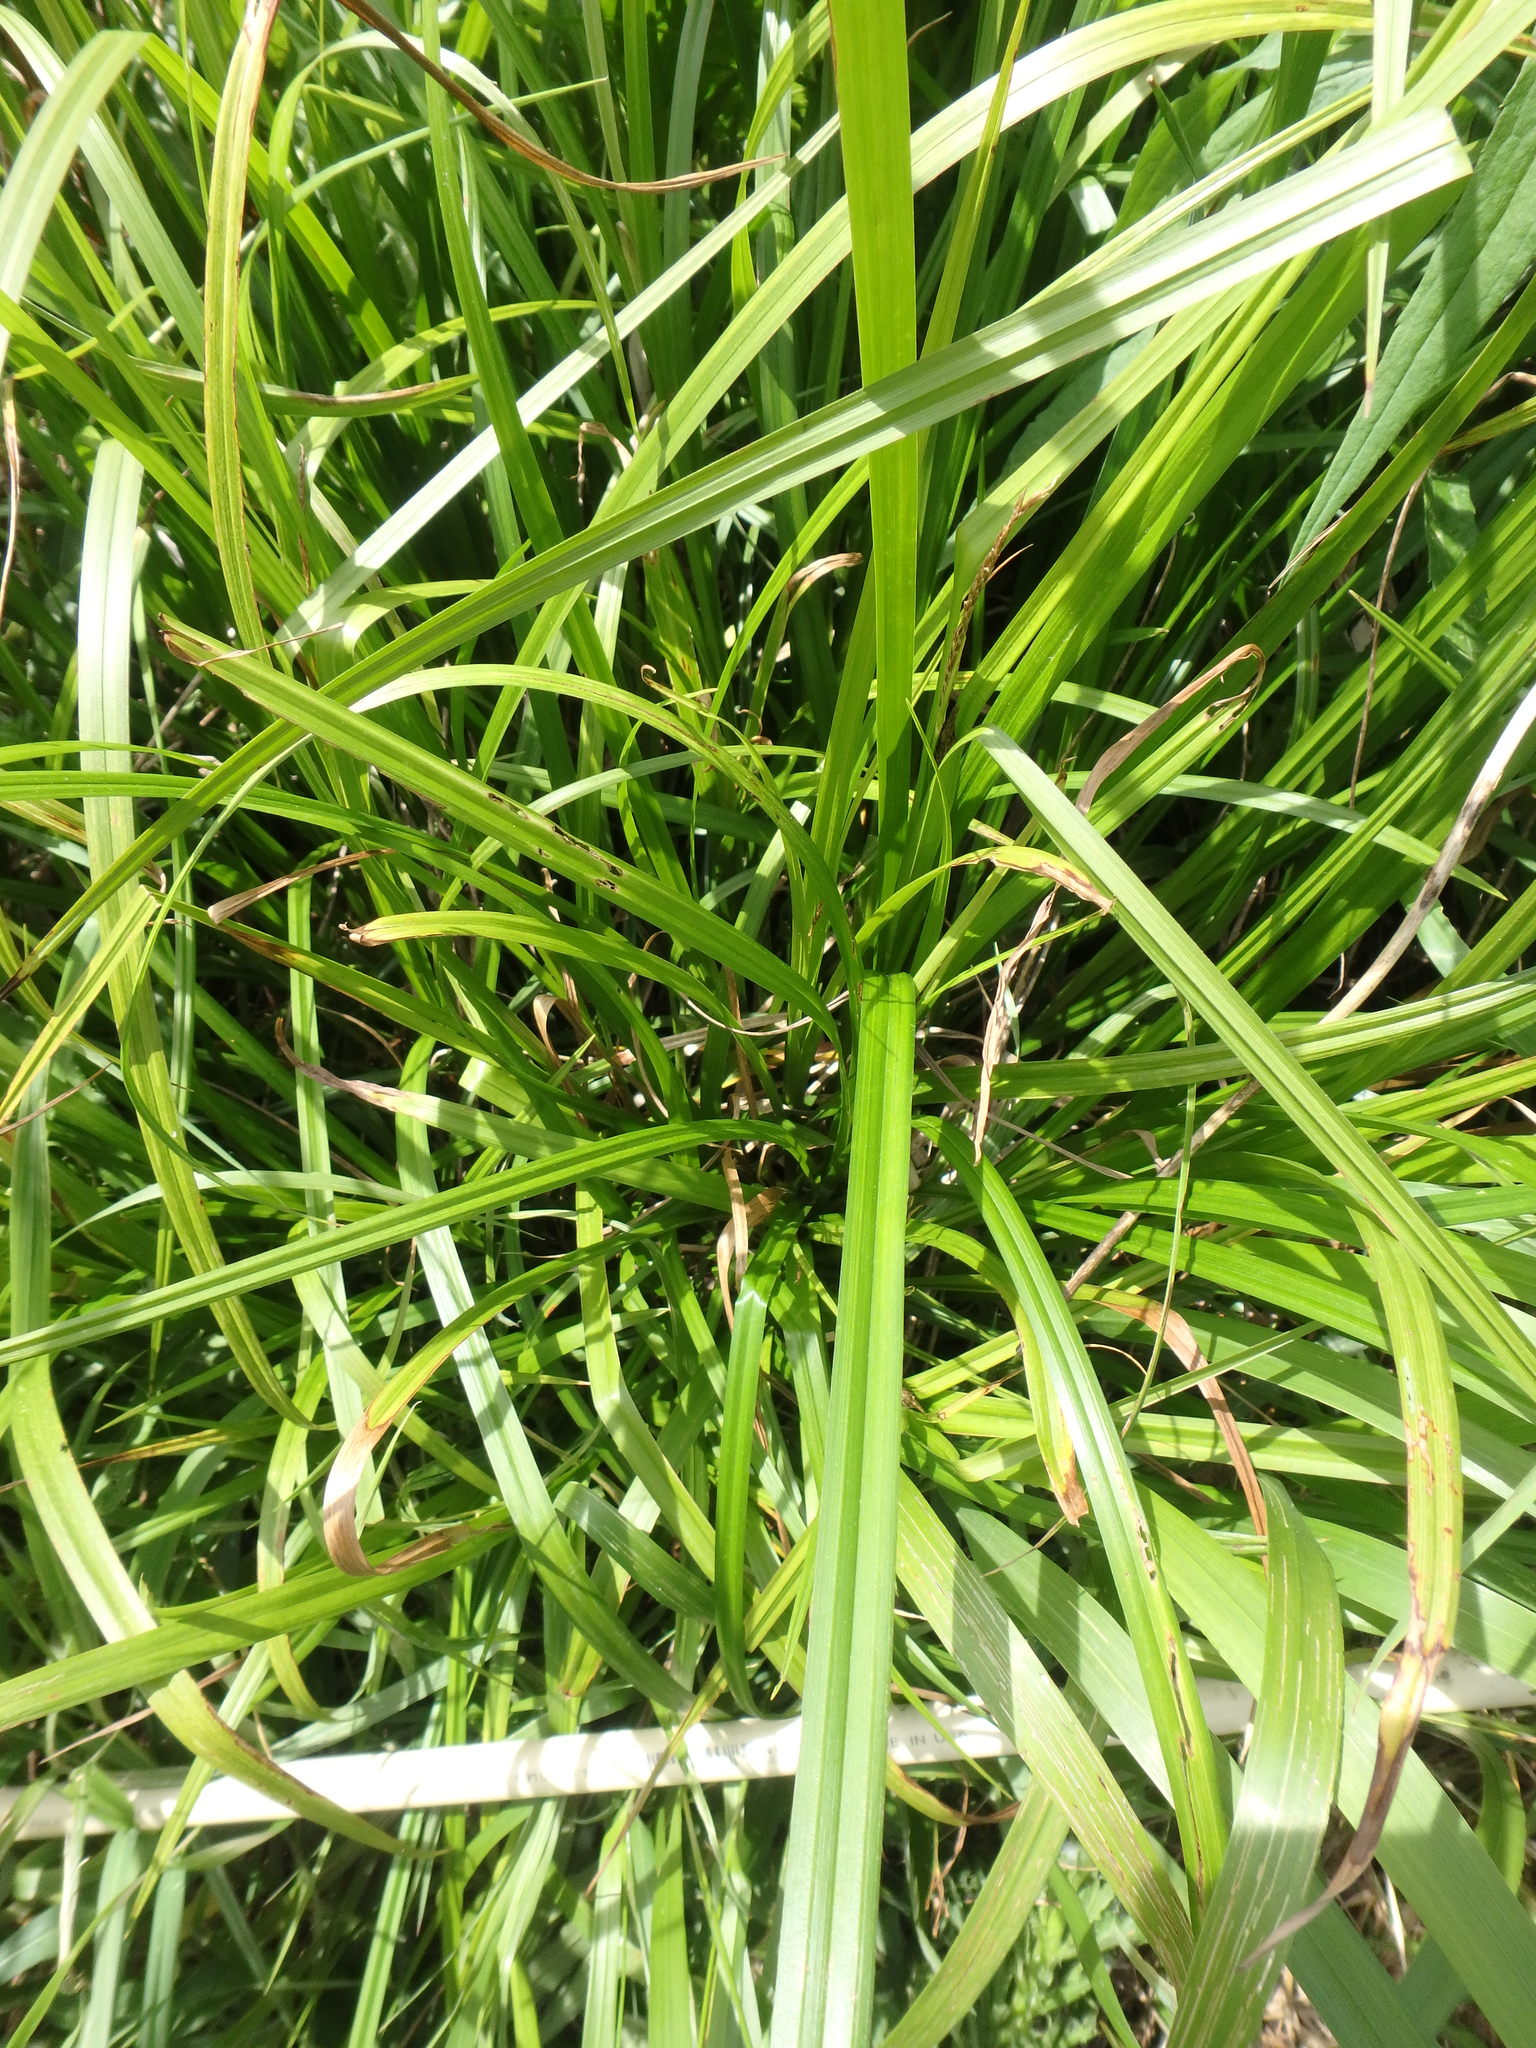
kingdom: Plantae
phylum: Tracheophyta
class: Liliopsida
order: Poales
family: Cyperaceae
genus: Carex
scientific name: Carex grayi
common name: Asa gray's sedge
